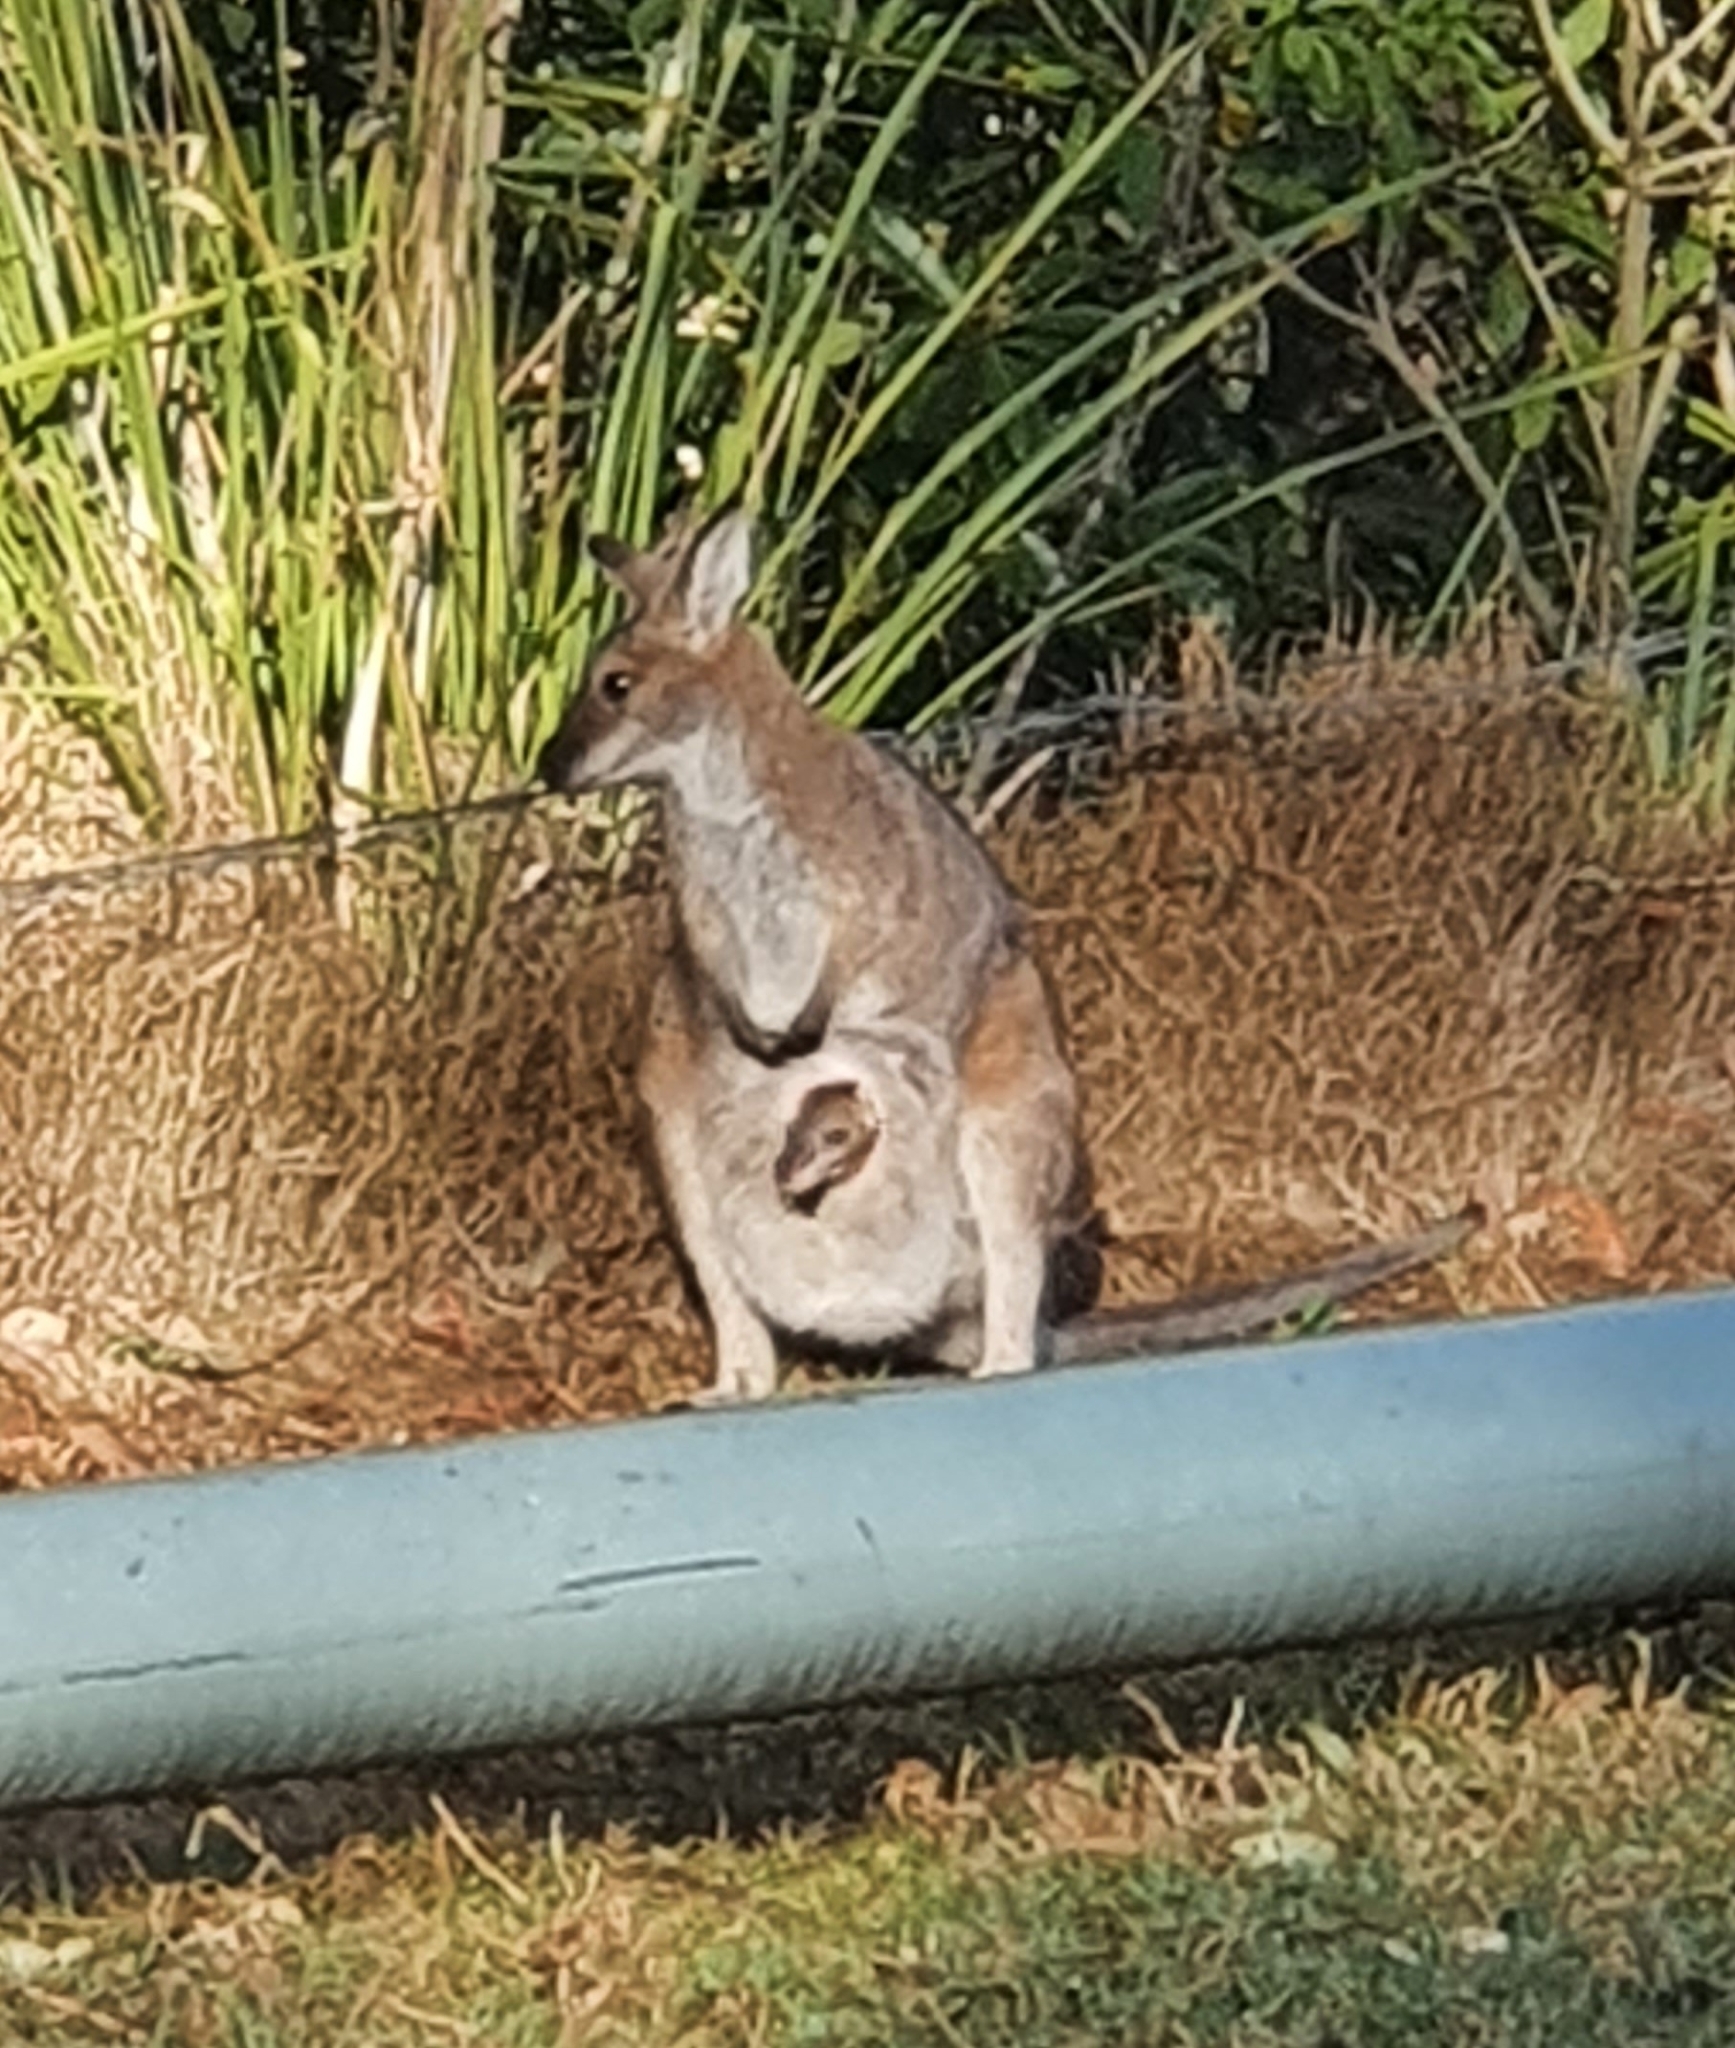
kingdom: Animalia
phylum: Chordata
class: Mammalia
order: Diprotodontia
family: Macropodidae
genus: Notamacropus
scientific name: Notamacropus rufogriseus
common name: Red-necked wallaby
